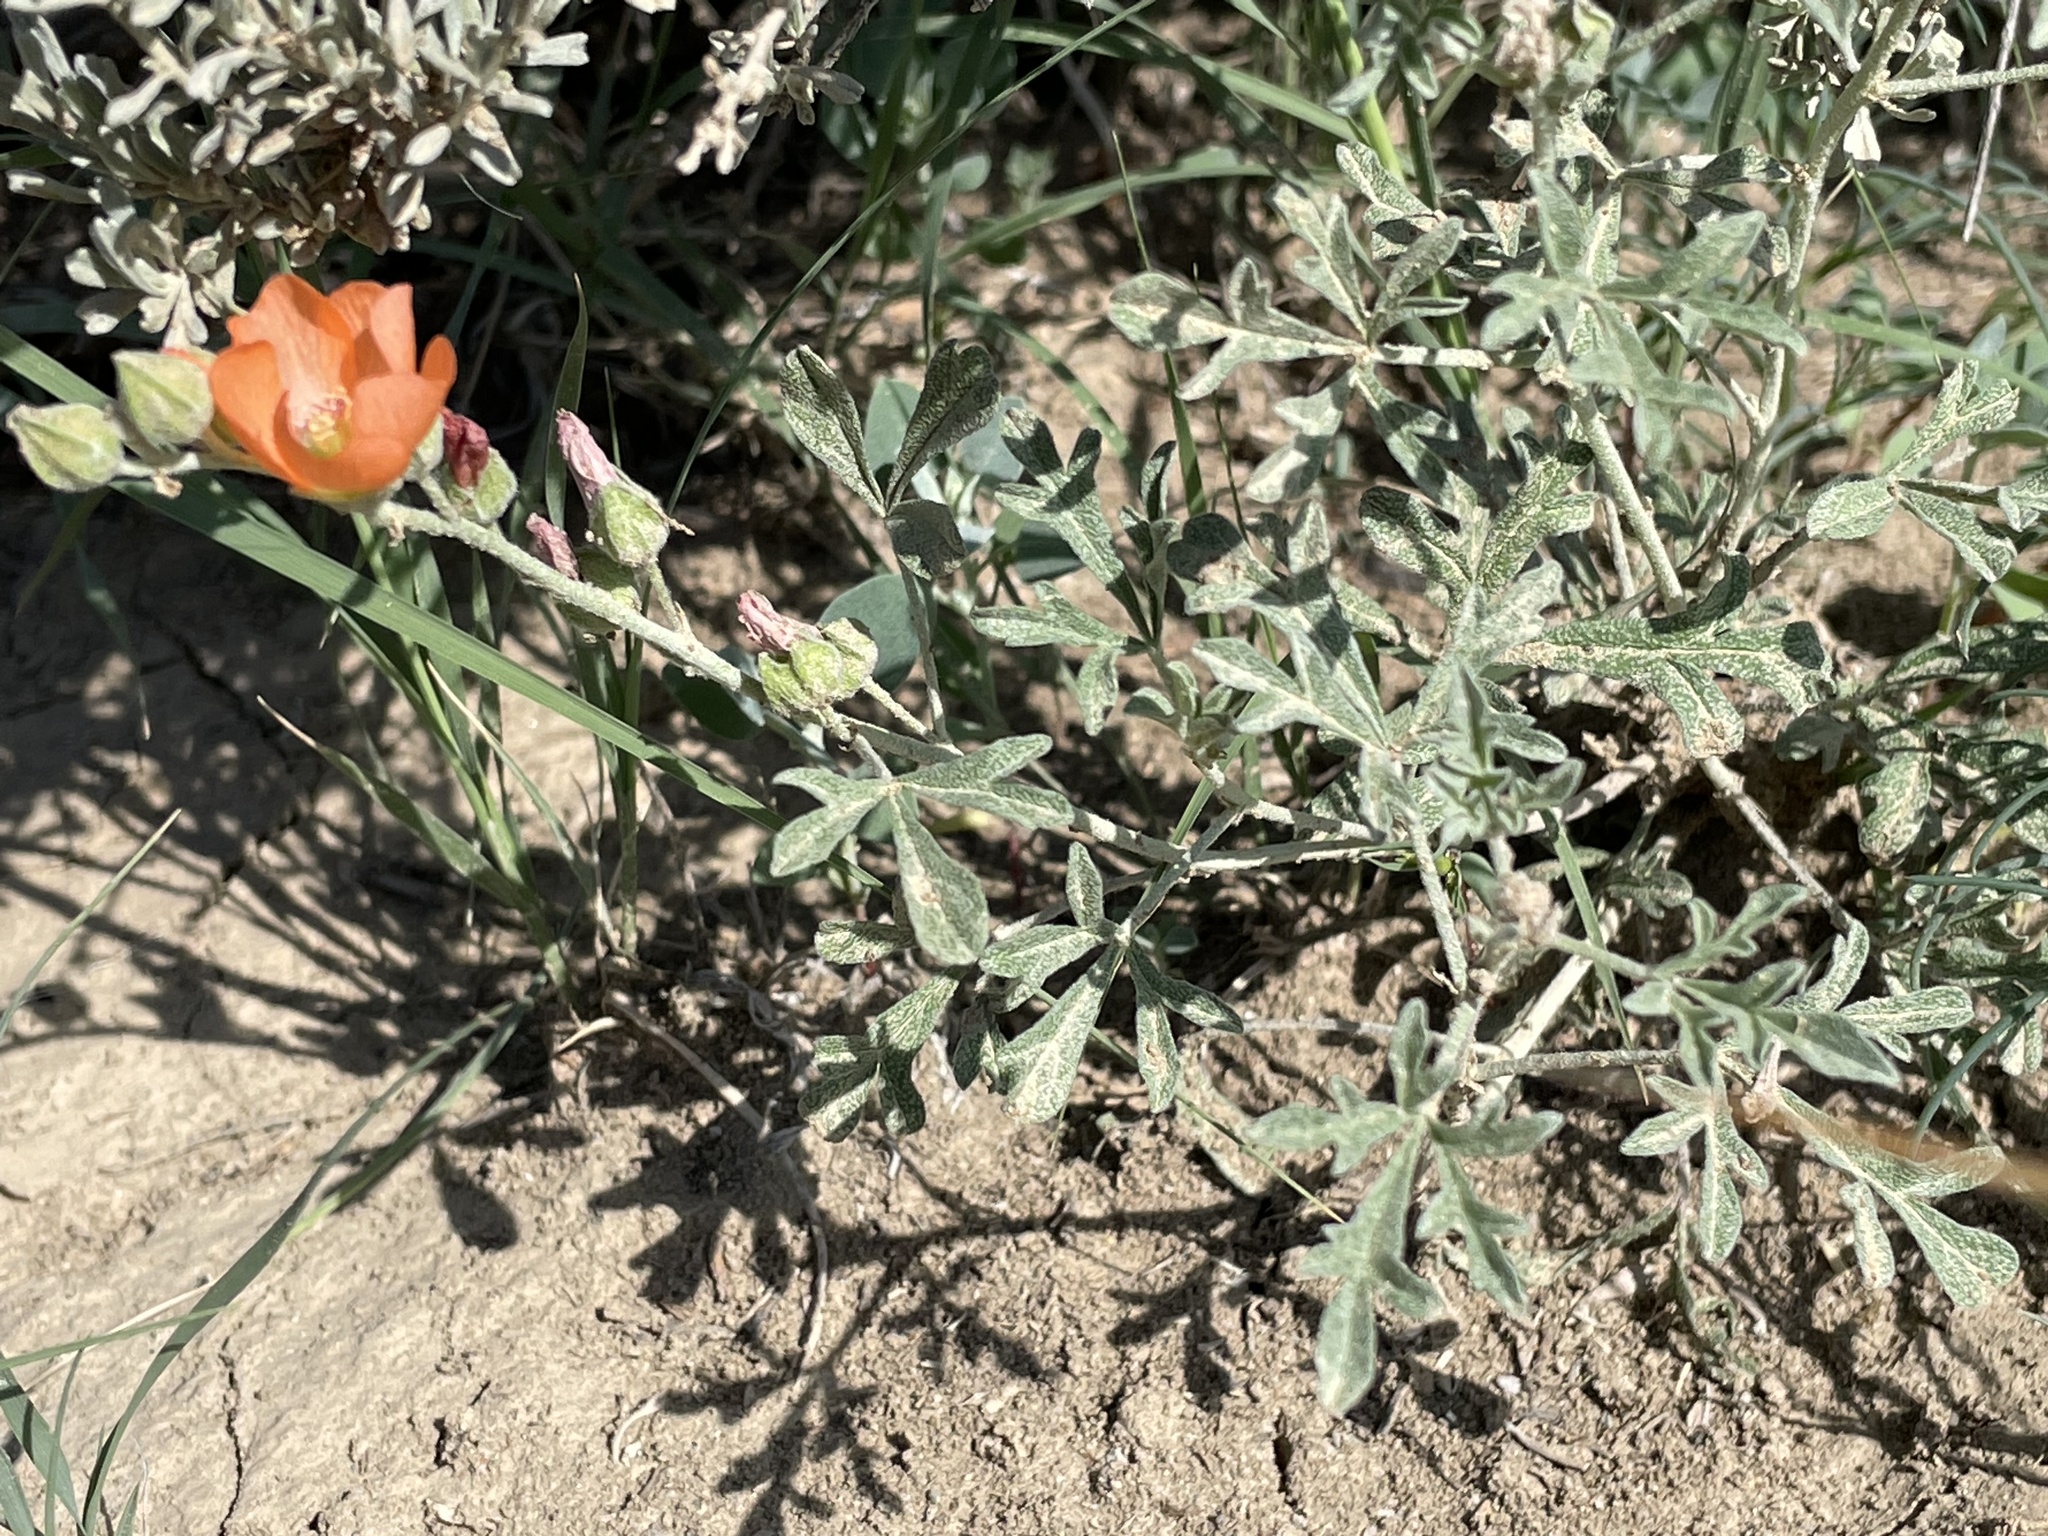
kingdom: Plantae
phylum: Tracheophyta
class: Magnoliopsida
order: Malvales
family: Malvaceae
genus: Sphaeralcea
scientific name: Sphaeralcea coccinea
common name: Moss-rose
